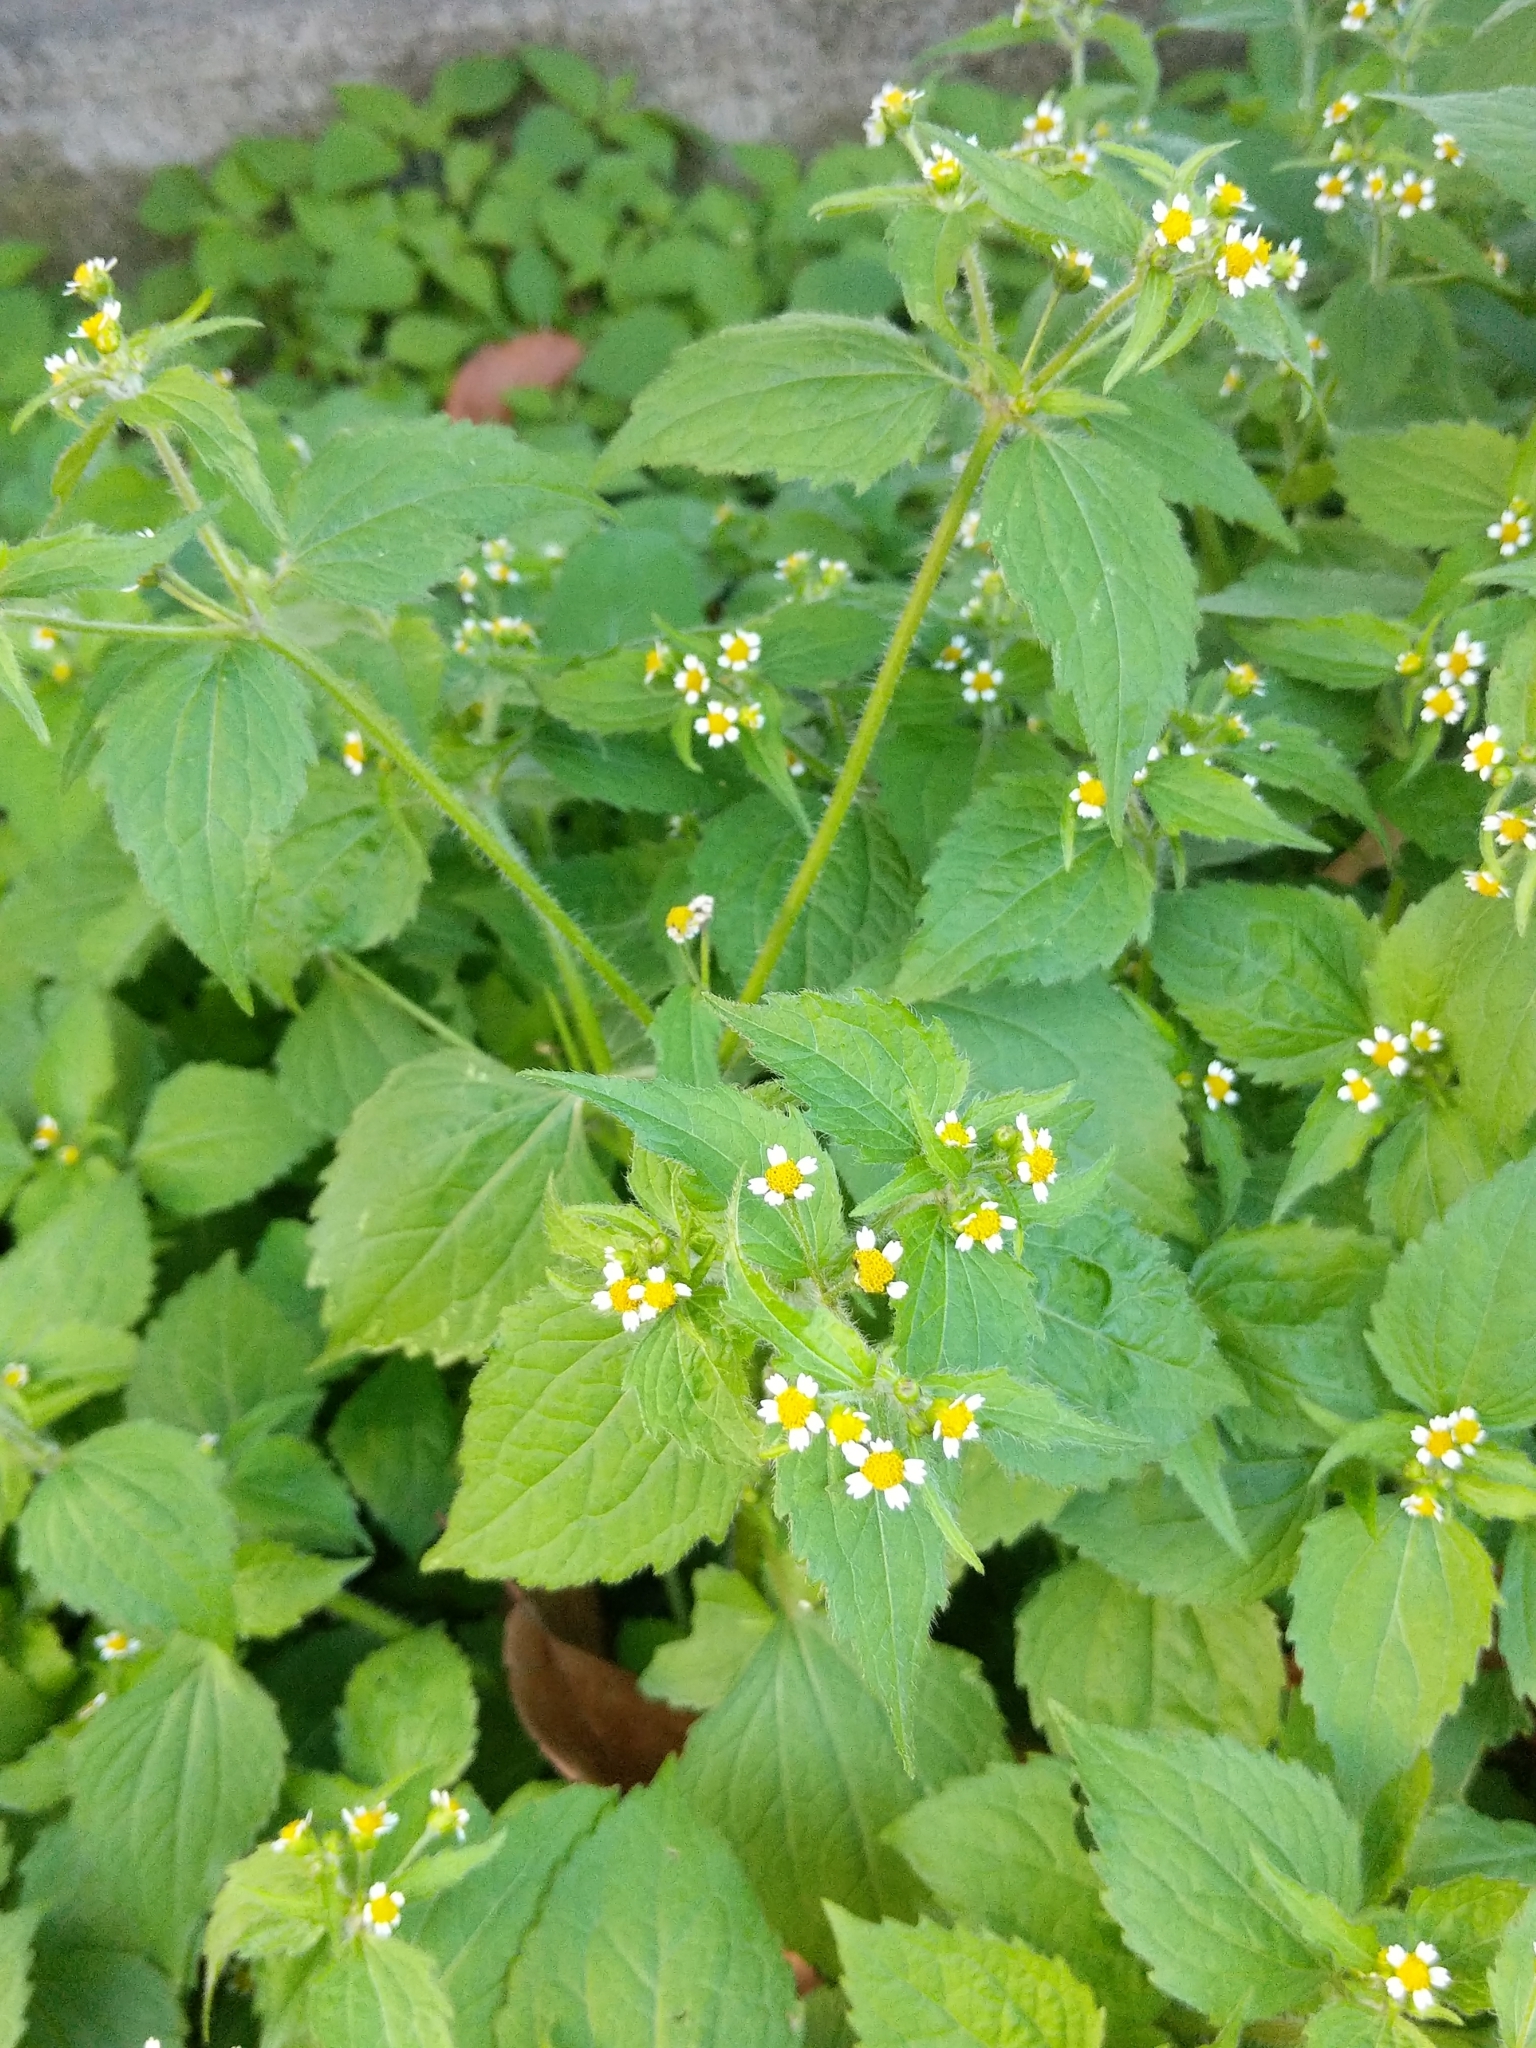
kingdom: Plantae
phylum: Tracheophyta
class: Magnoliopsida
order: Asterales
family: Asteraceae
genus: Galinsoga
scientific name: Galinsoga quadriradiata
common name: Shaggy soldier
